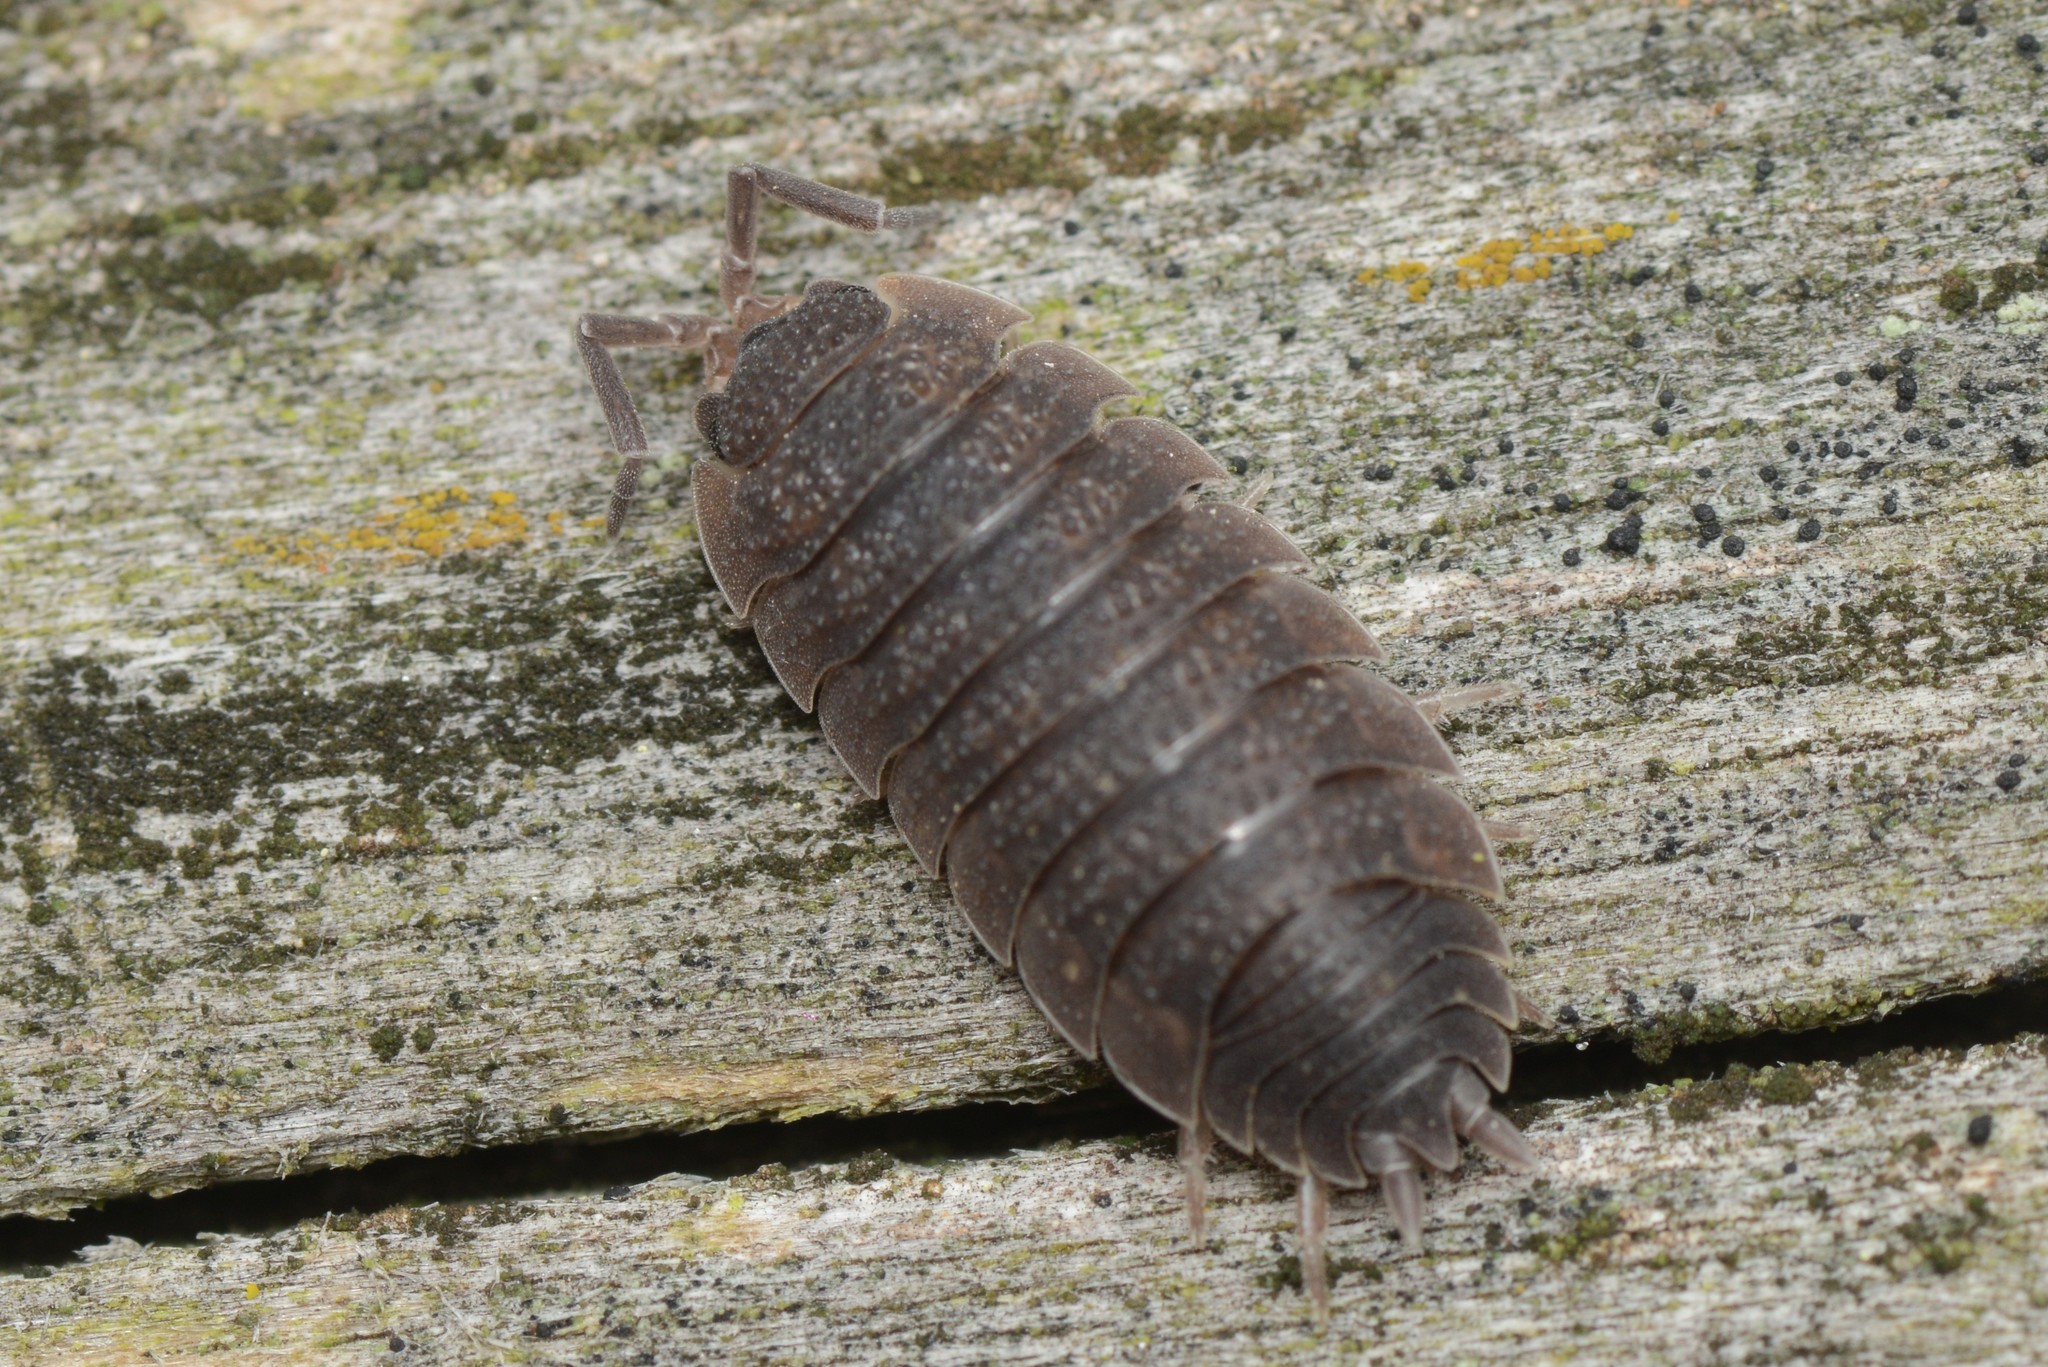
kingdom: Animalia
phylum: Arthropoda
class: Malacostraca
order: Isopoda
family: Porcellionidae
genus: Porcellio
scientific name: Porcellio scaber
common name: Common rough woodlouse
